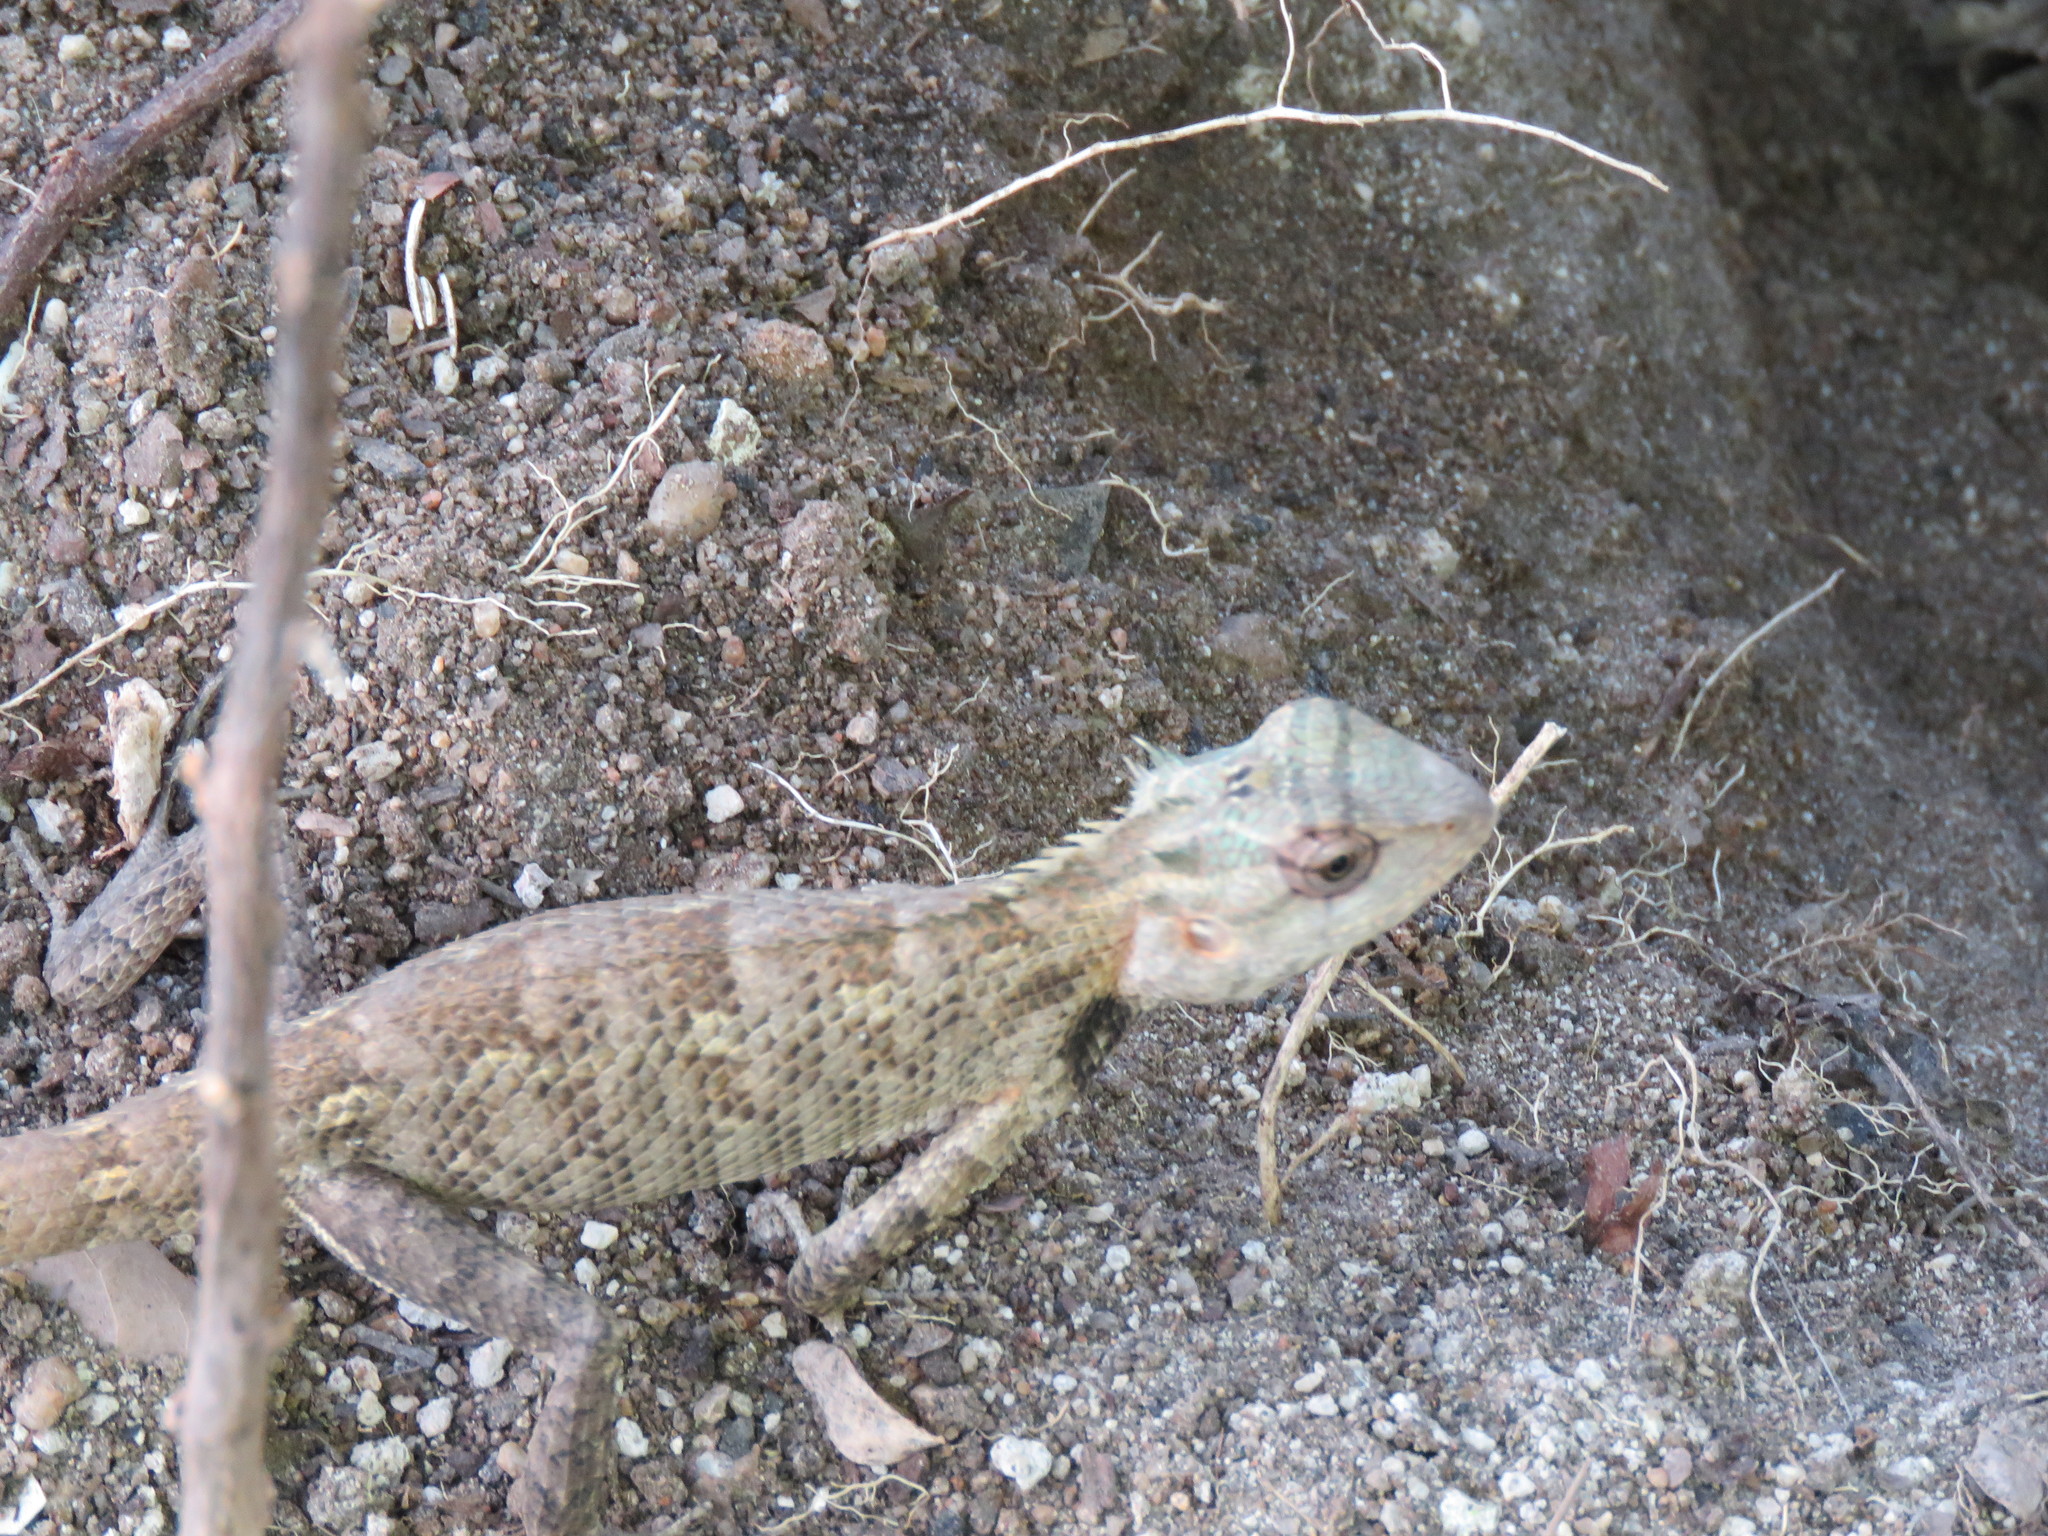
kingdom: Animalia
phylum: Chordata
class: Squamata
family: Agamidae
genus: Calotes
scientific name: Calotes versicolor
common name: Oriental garden lizard
